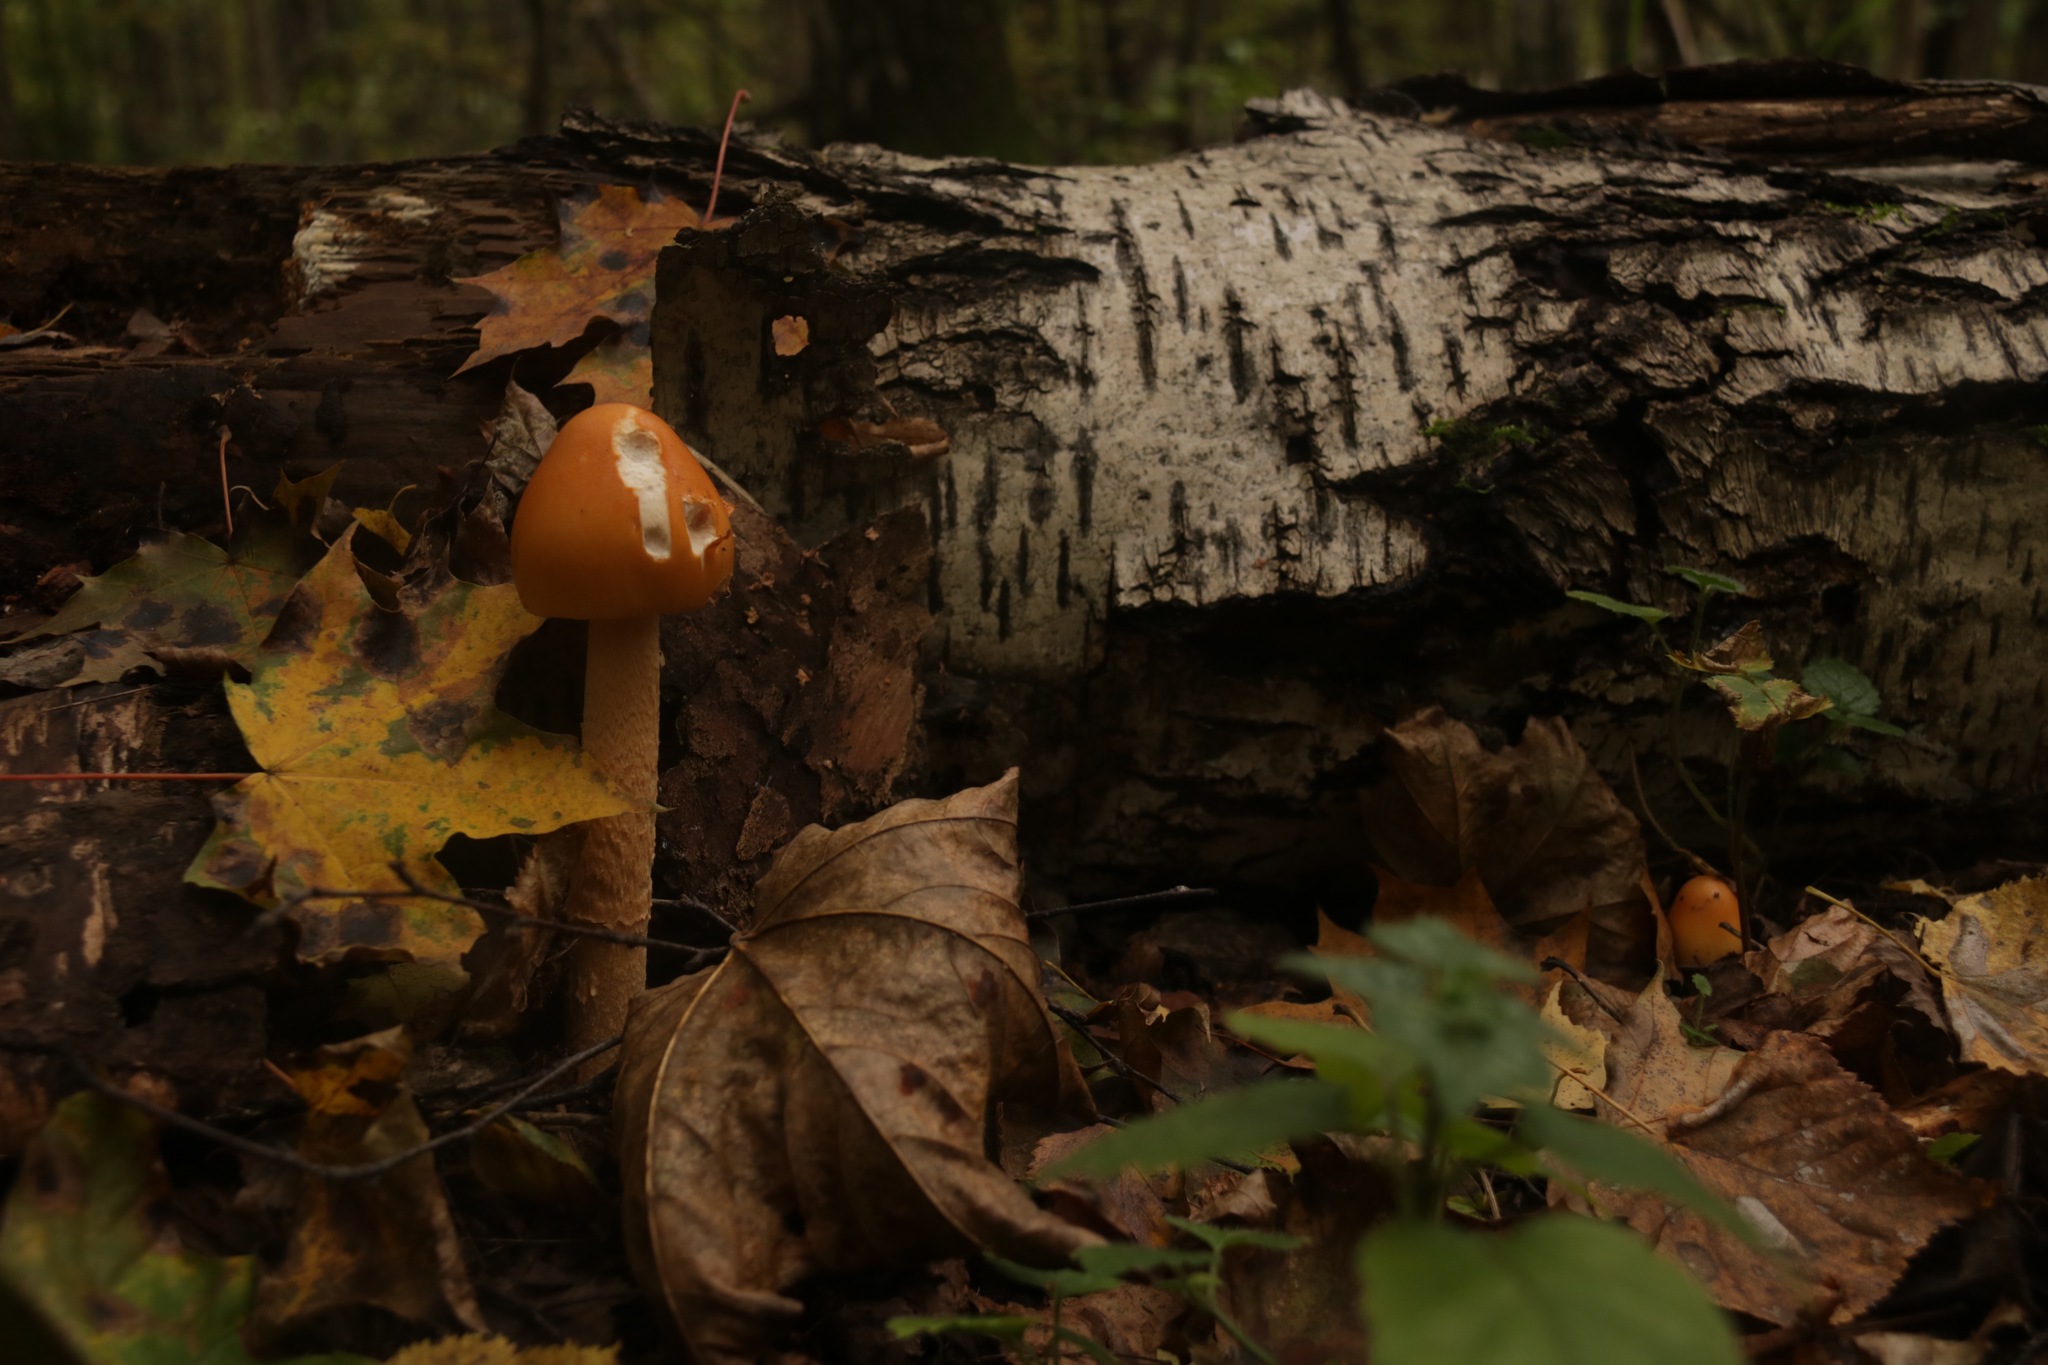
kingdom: Fungi
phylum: Basidiomycota
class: Agaricomycetes
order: Agaricales
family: Amanitaceae
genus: Amanita
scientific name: Amanita crocea
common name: Orange grisette
